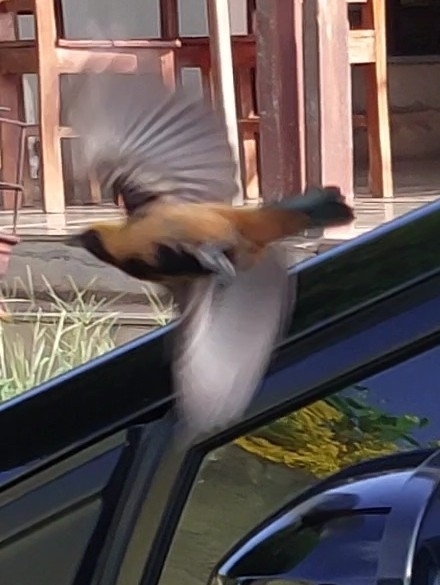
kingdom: Animalia
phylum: Chordata
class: Aves
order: Passeriformes
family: Thraupidae
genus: Stilpnia
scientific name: Stilpnia cayana
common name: Burnished-buff tanager
